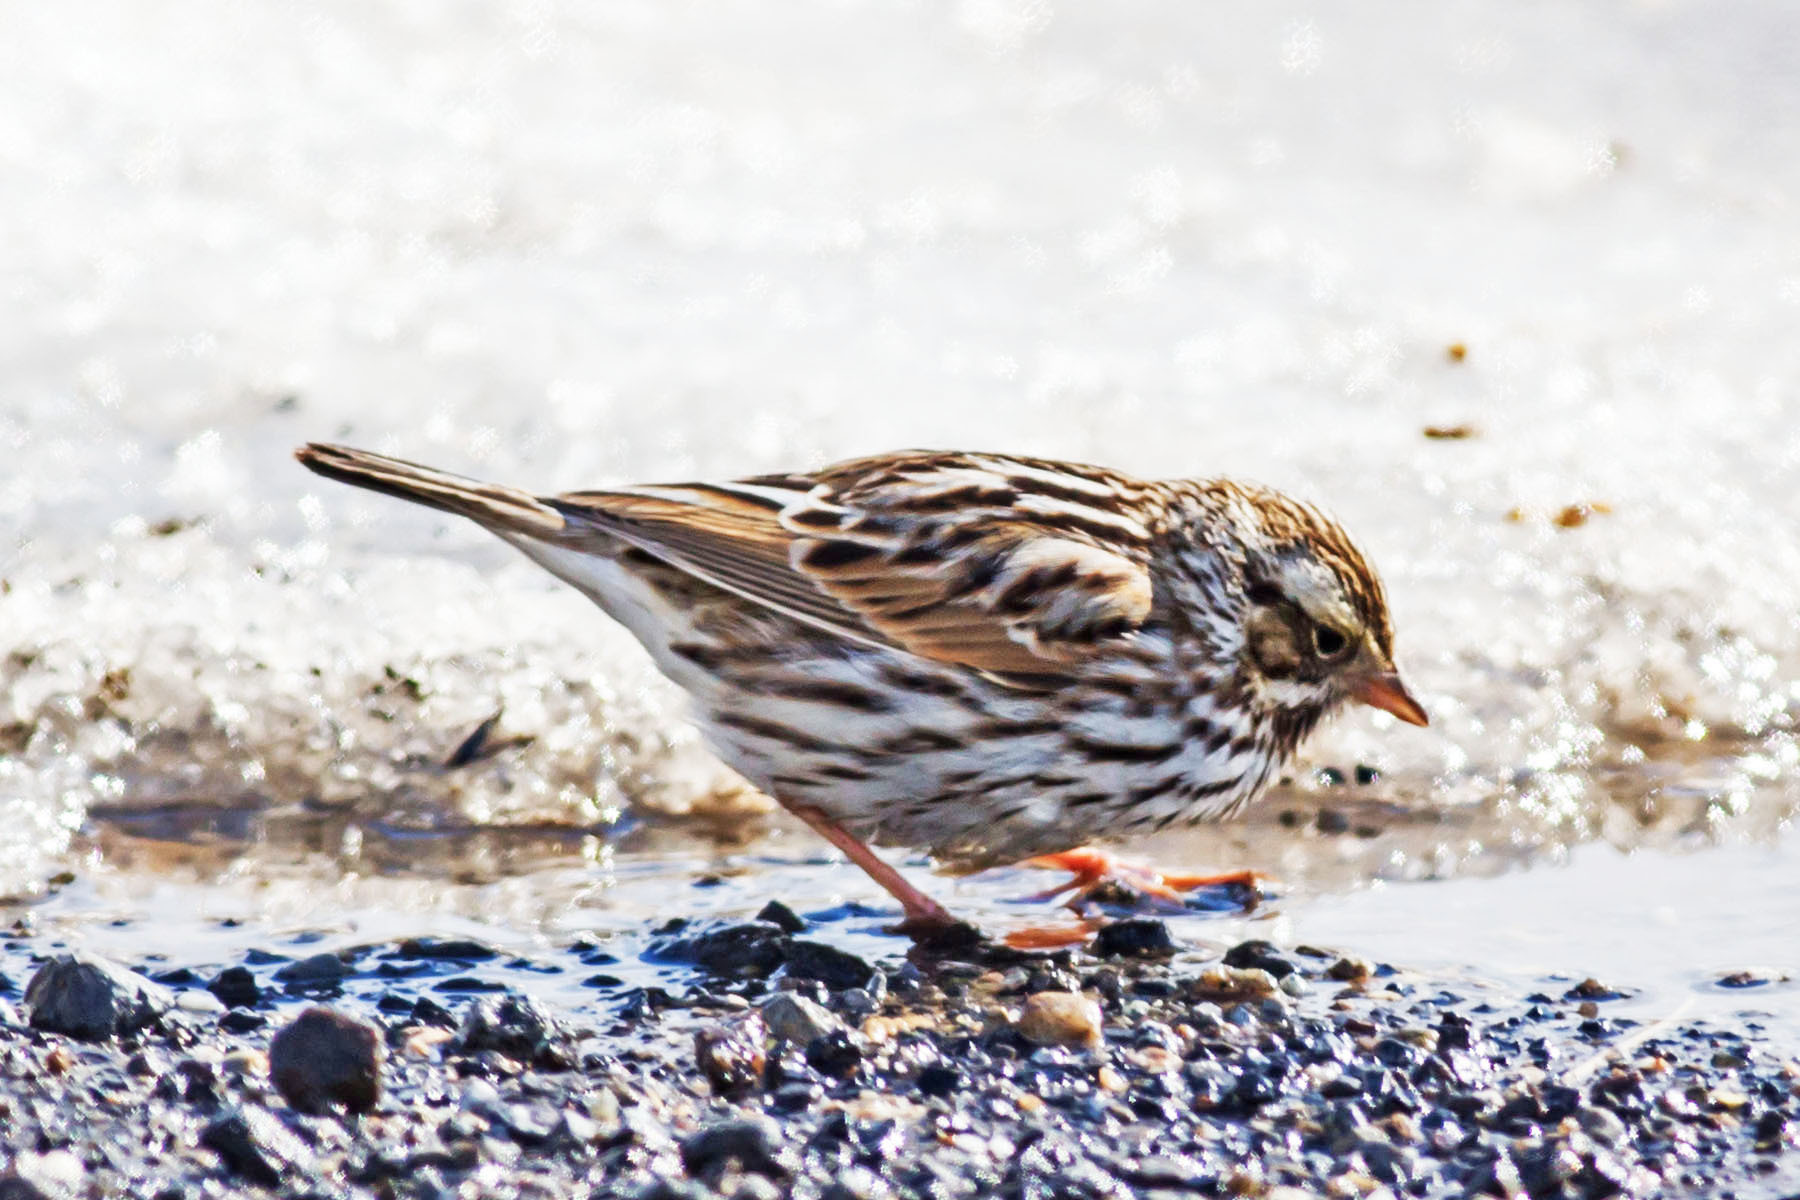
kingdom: Animalia
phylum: Chordata
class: Aves
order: Passeriformes
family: Passerellidae
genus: Passerculus
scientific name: Passerculus sandwichensis
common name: Savannah sparrow
